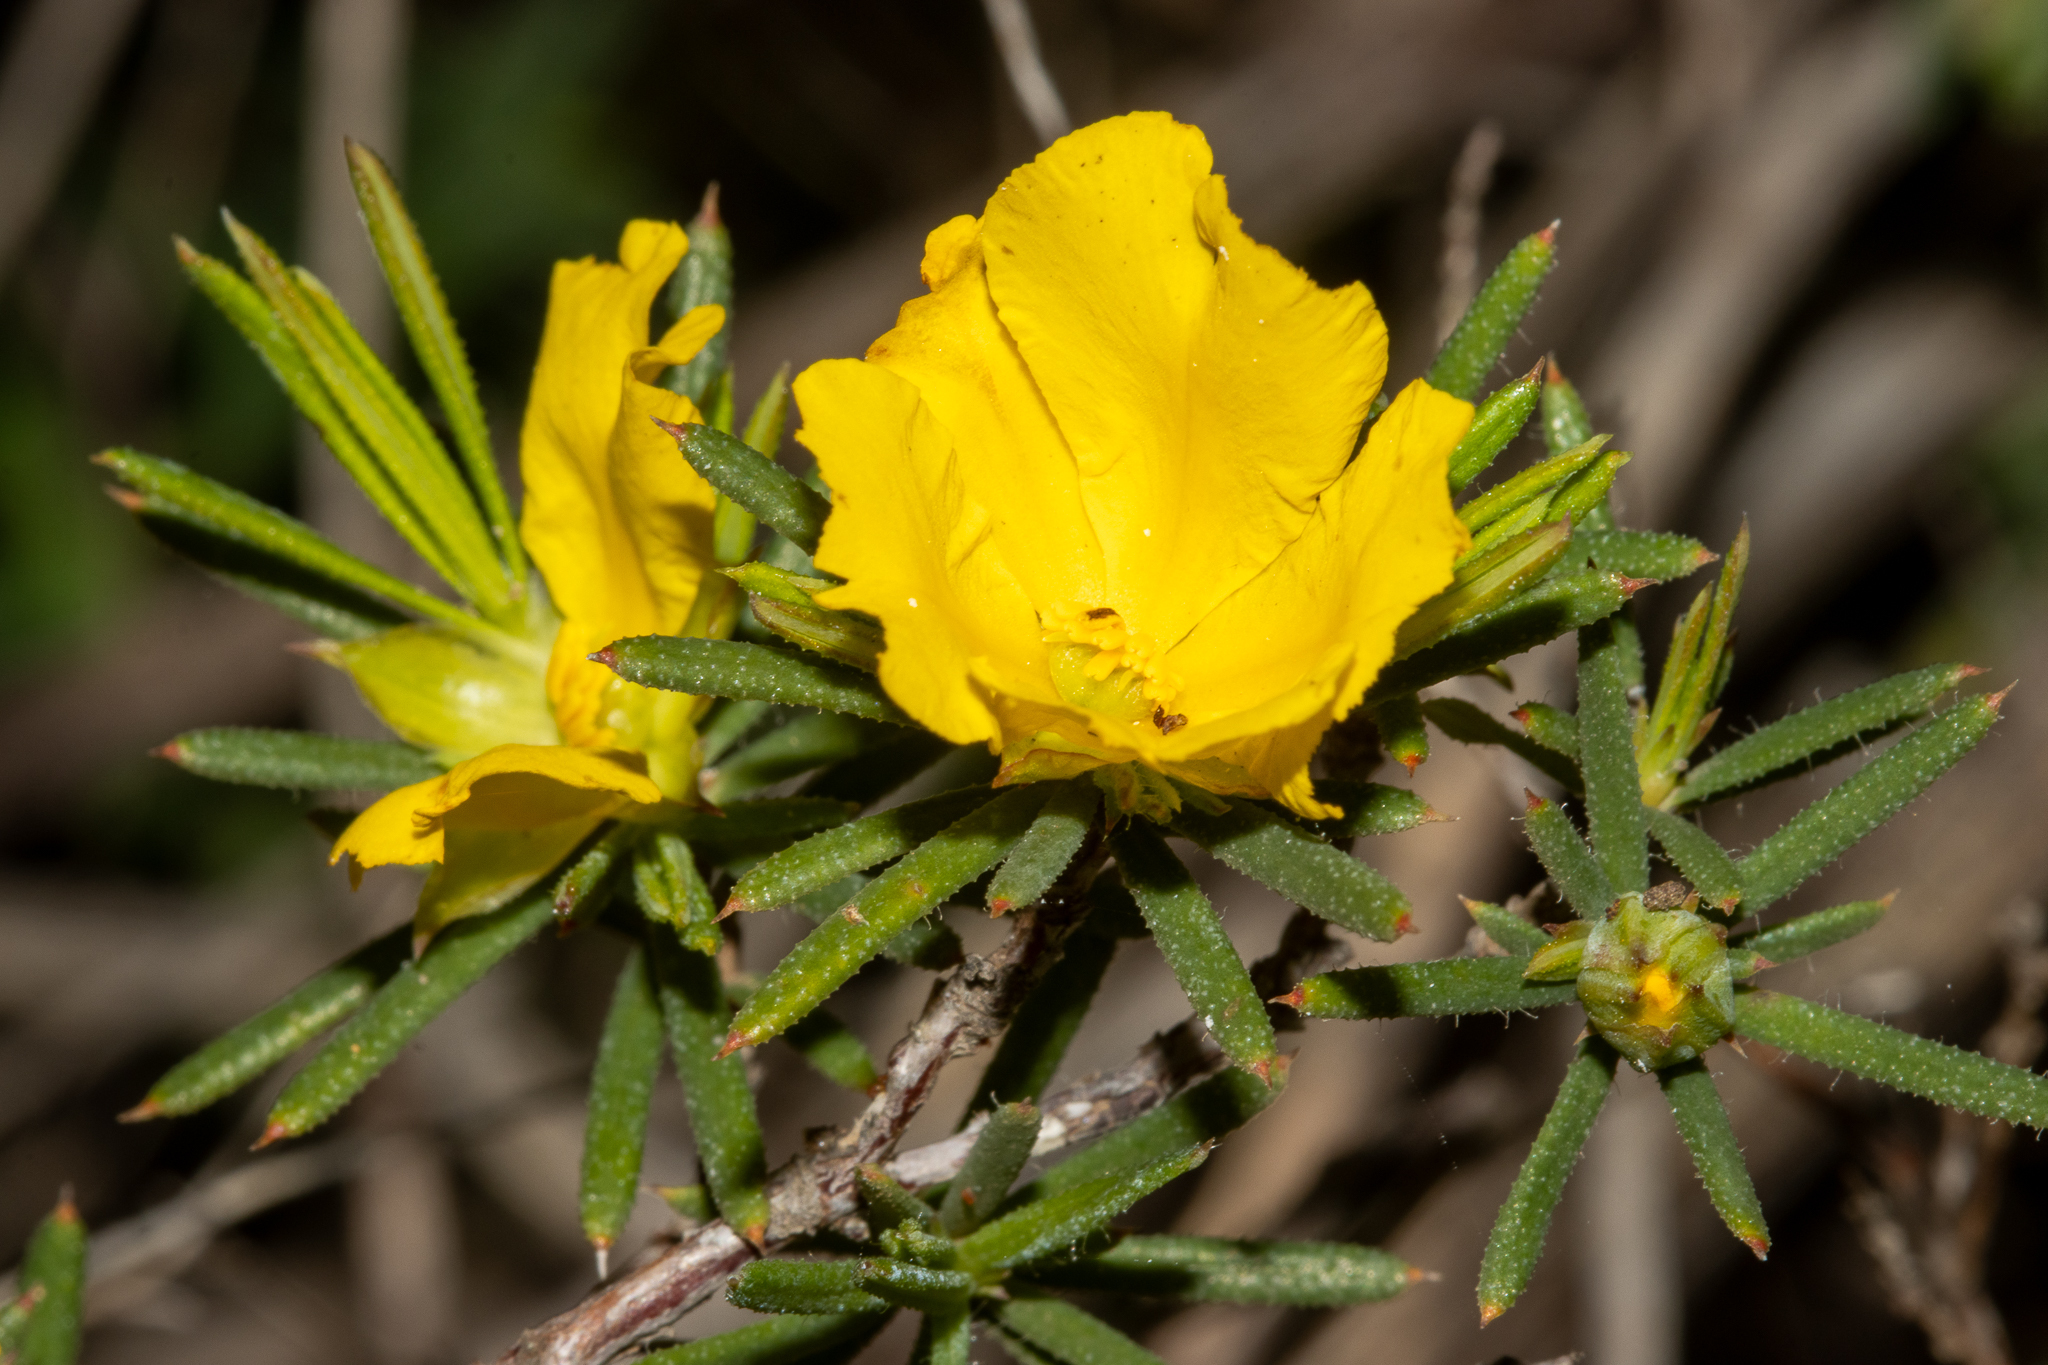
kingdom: Plantae
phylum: Tracheophyta
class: Magnoliopsida
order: Dilleniales
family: Dilleniaceae
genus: Hibbertia
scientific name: Hibbertia aurea
